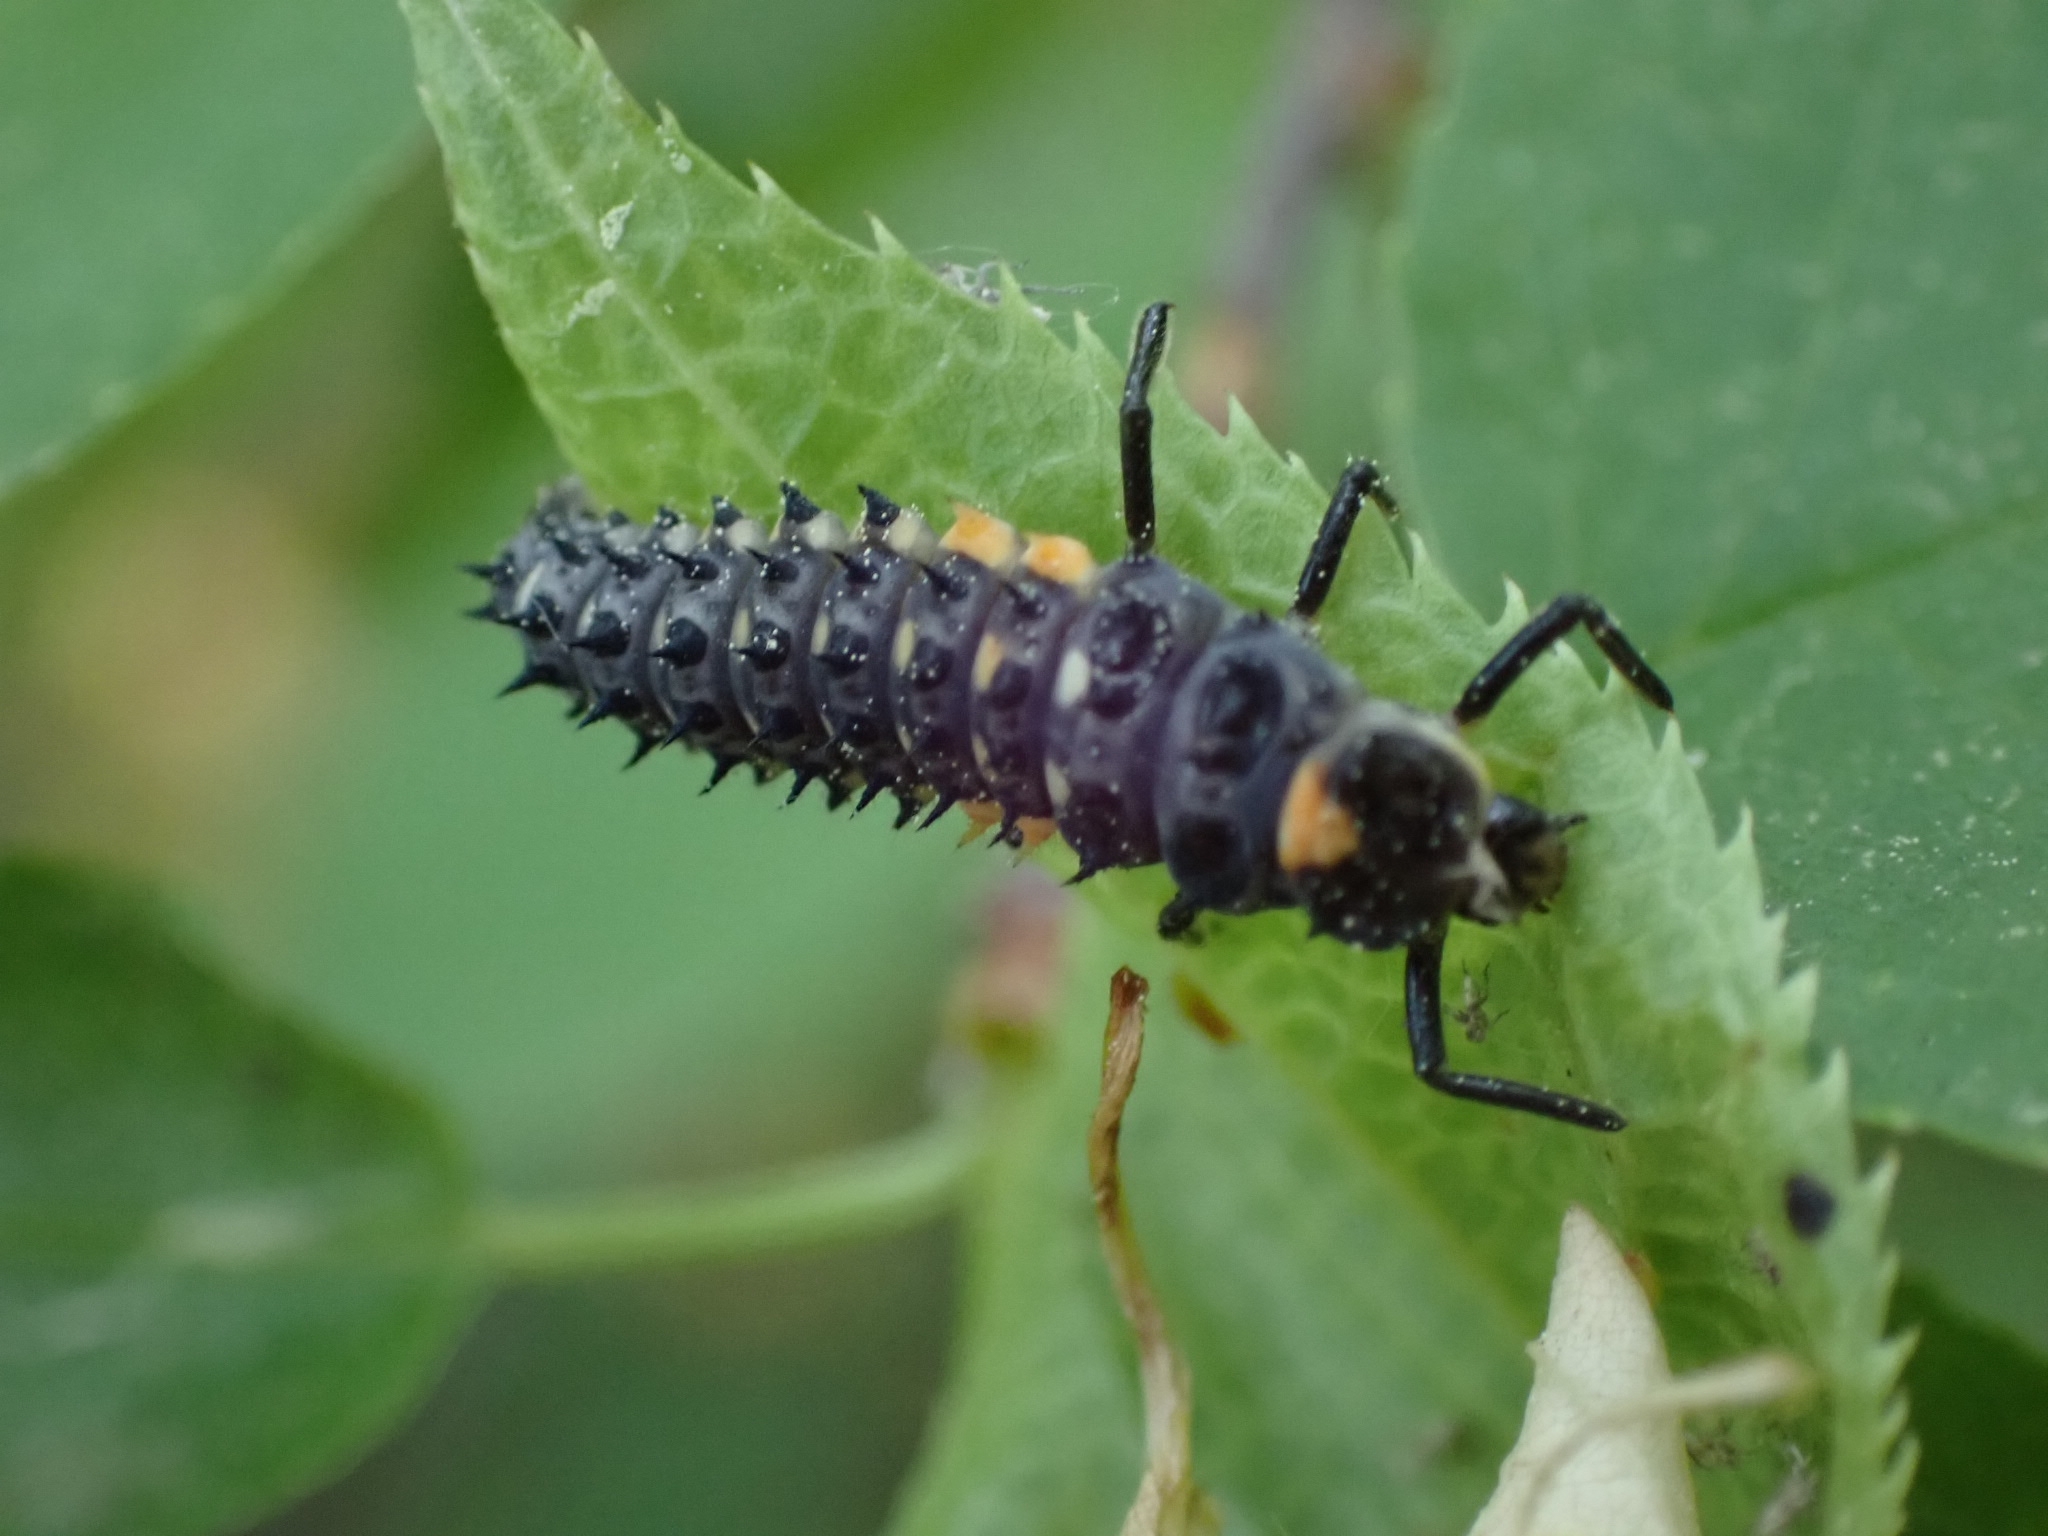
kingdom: Animalia
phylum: Arthropoda
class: Insecta
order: Coleoptera
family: Coccinellidae
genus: Anatis
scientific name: Anatis ocellata
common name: Eyed ladybird
